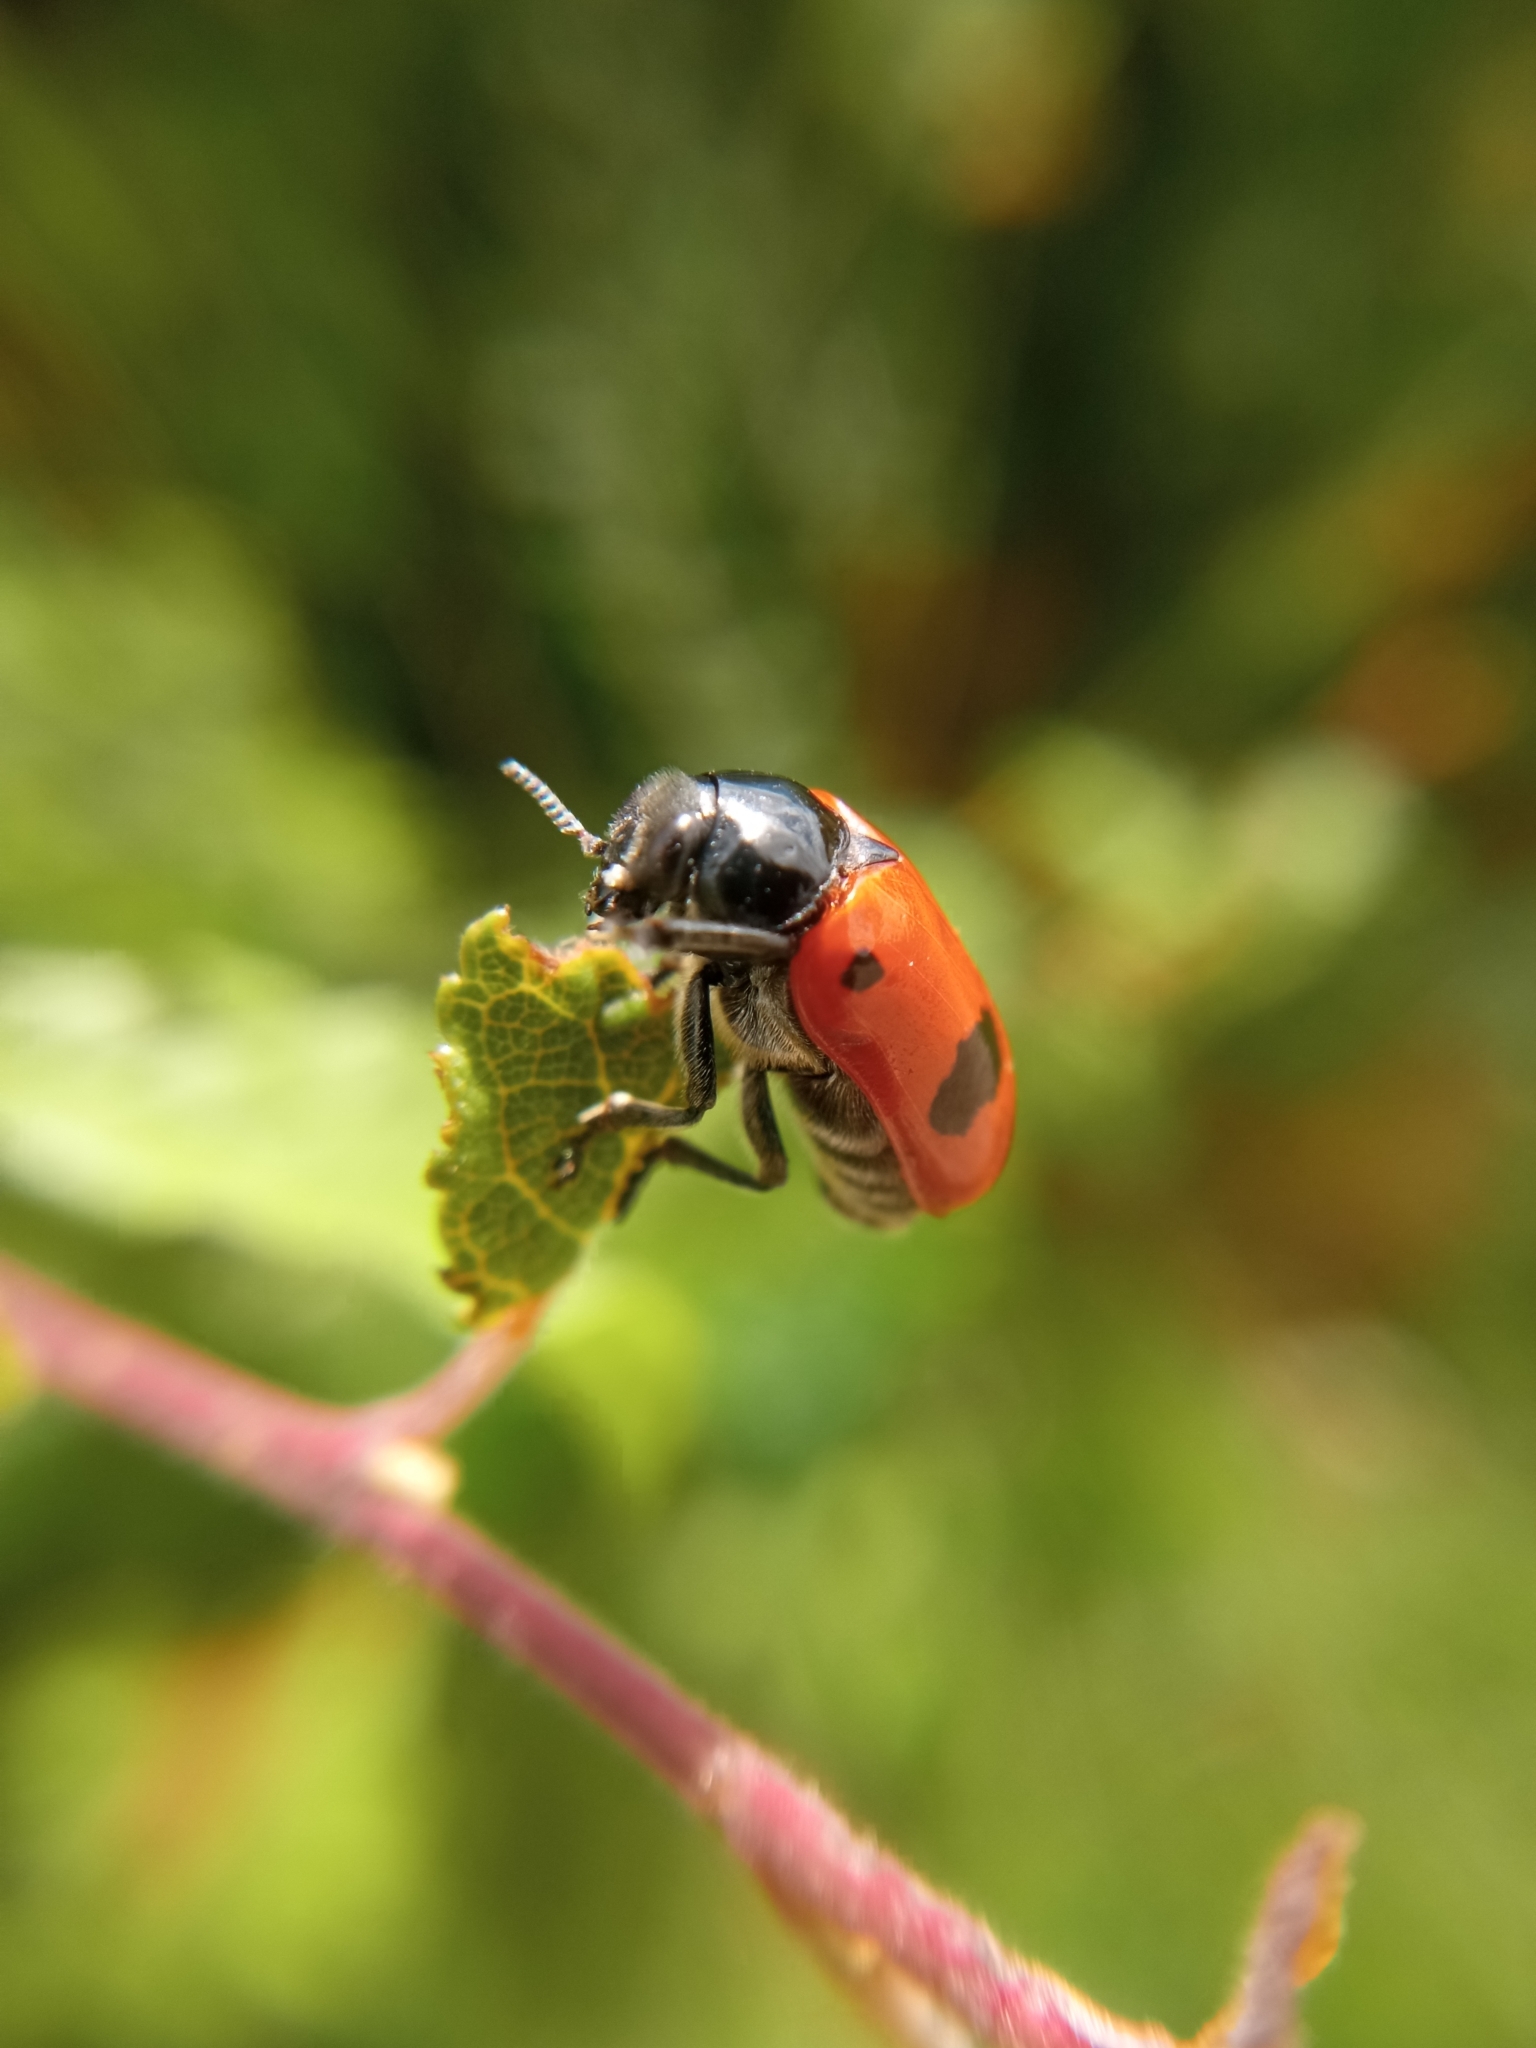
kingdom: Animalia
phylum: Arthropoda
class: Insecta
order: Coleoptera
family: Chrysomelidae
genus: Clytra
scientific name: Clytra laeviuscula
